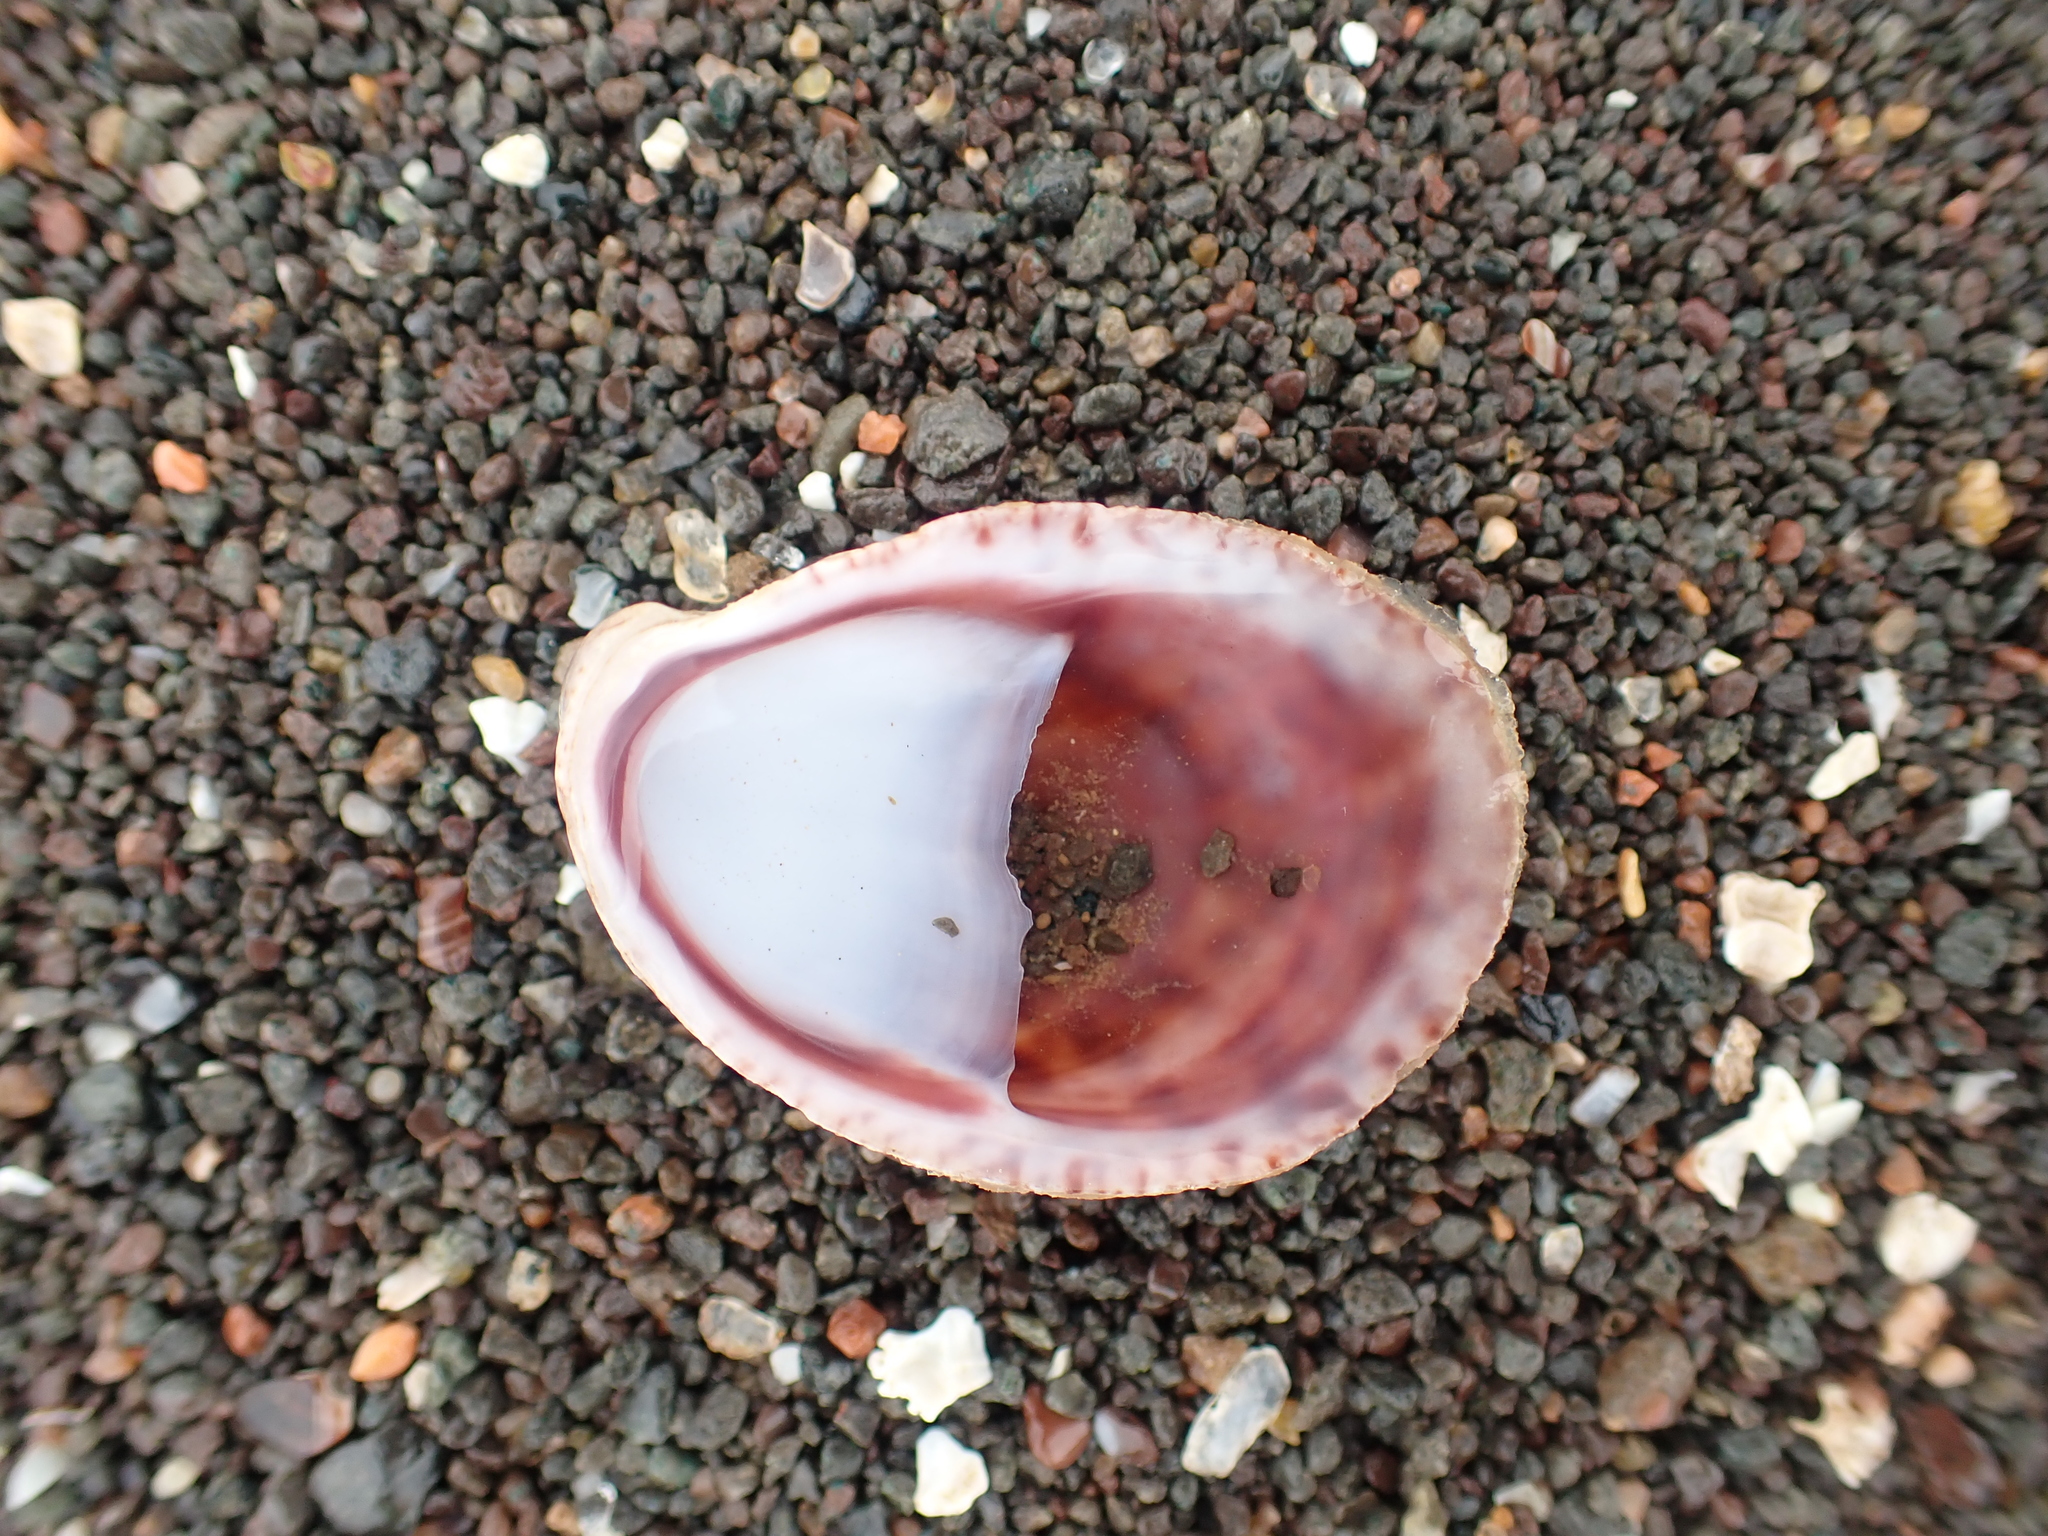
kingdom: Animalia
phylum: Mollusca
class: Gastropoda
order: Littorinimorpha
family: Calyptraeidae
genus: Crepidula
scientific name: Crepidula fornicata
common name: Slipper limpet
